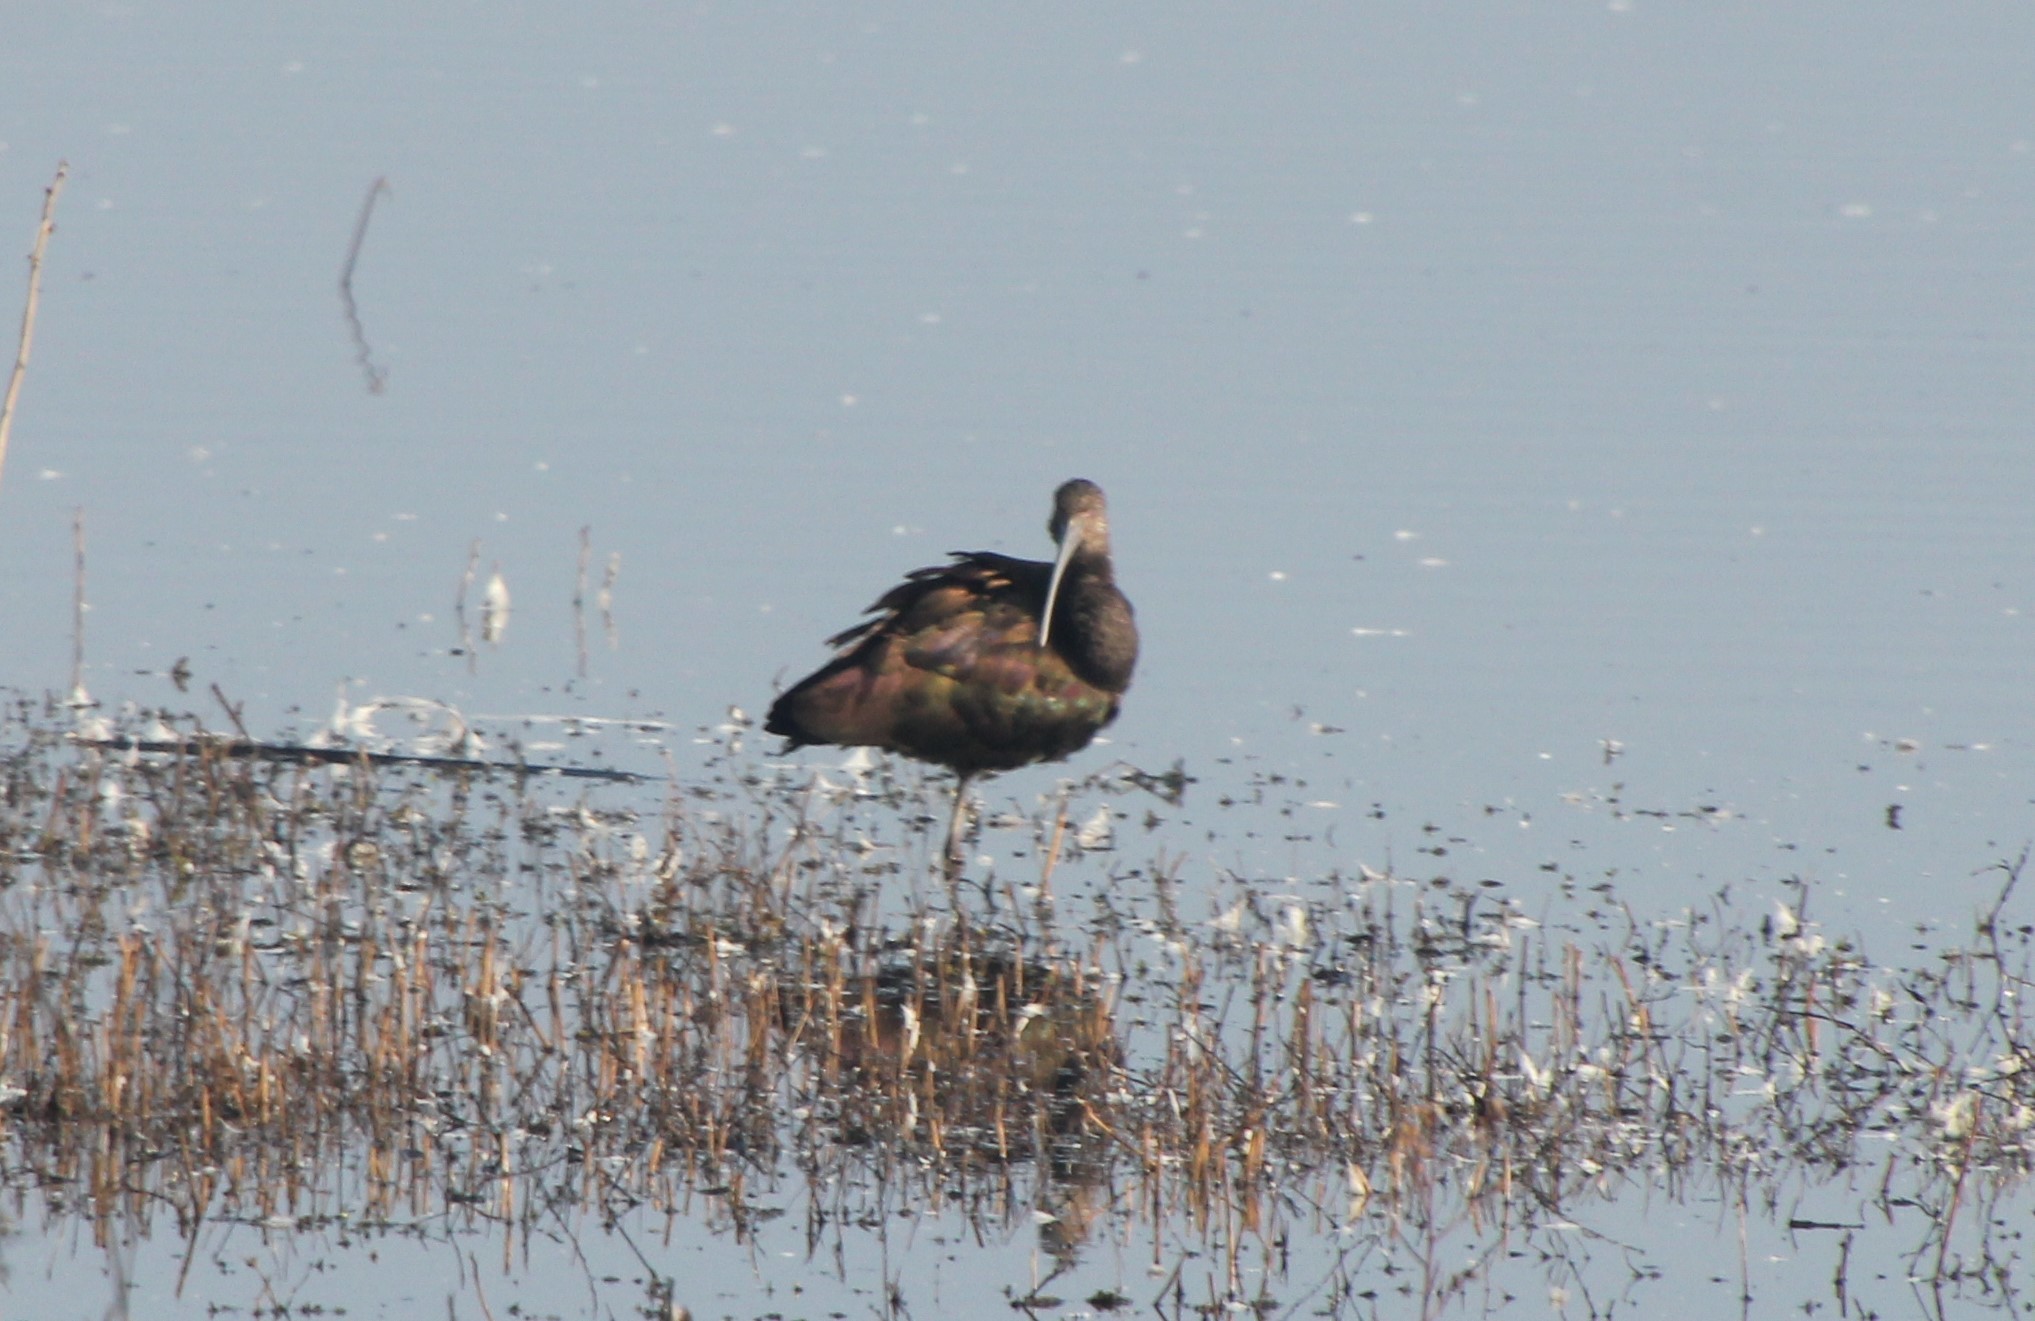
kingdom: Animalia
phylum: Chordata
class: Aves
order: Pelecaniformes
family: Threskiornithidae
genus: Plegadis
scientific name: Plegadis chihi
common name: White-faced ibis
